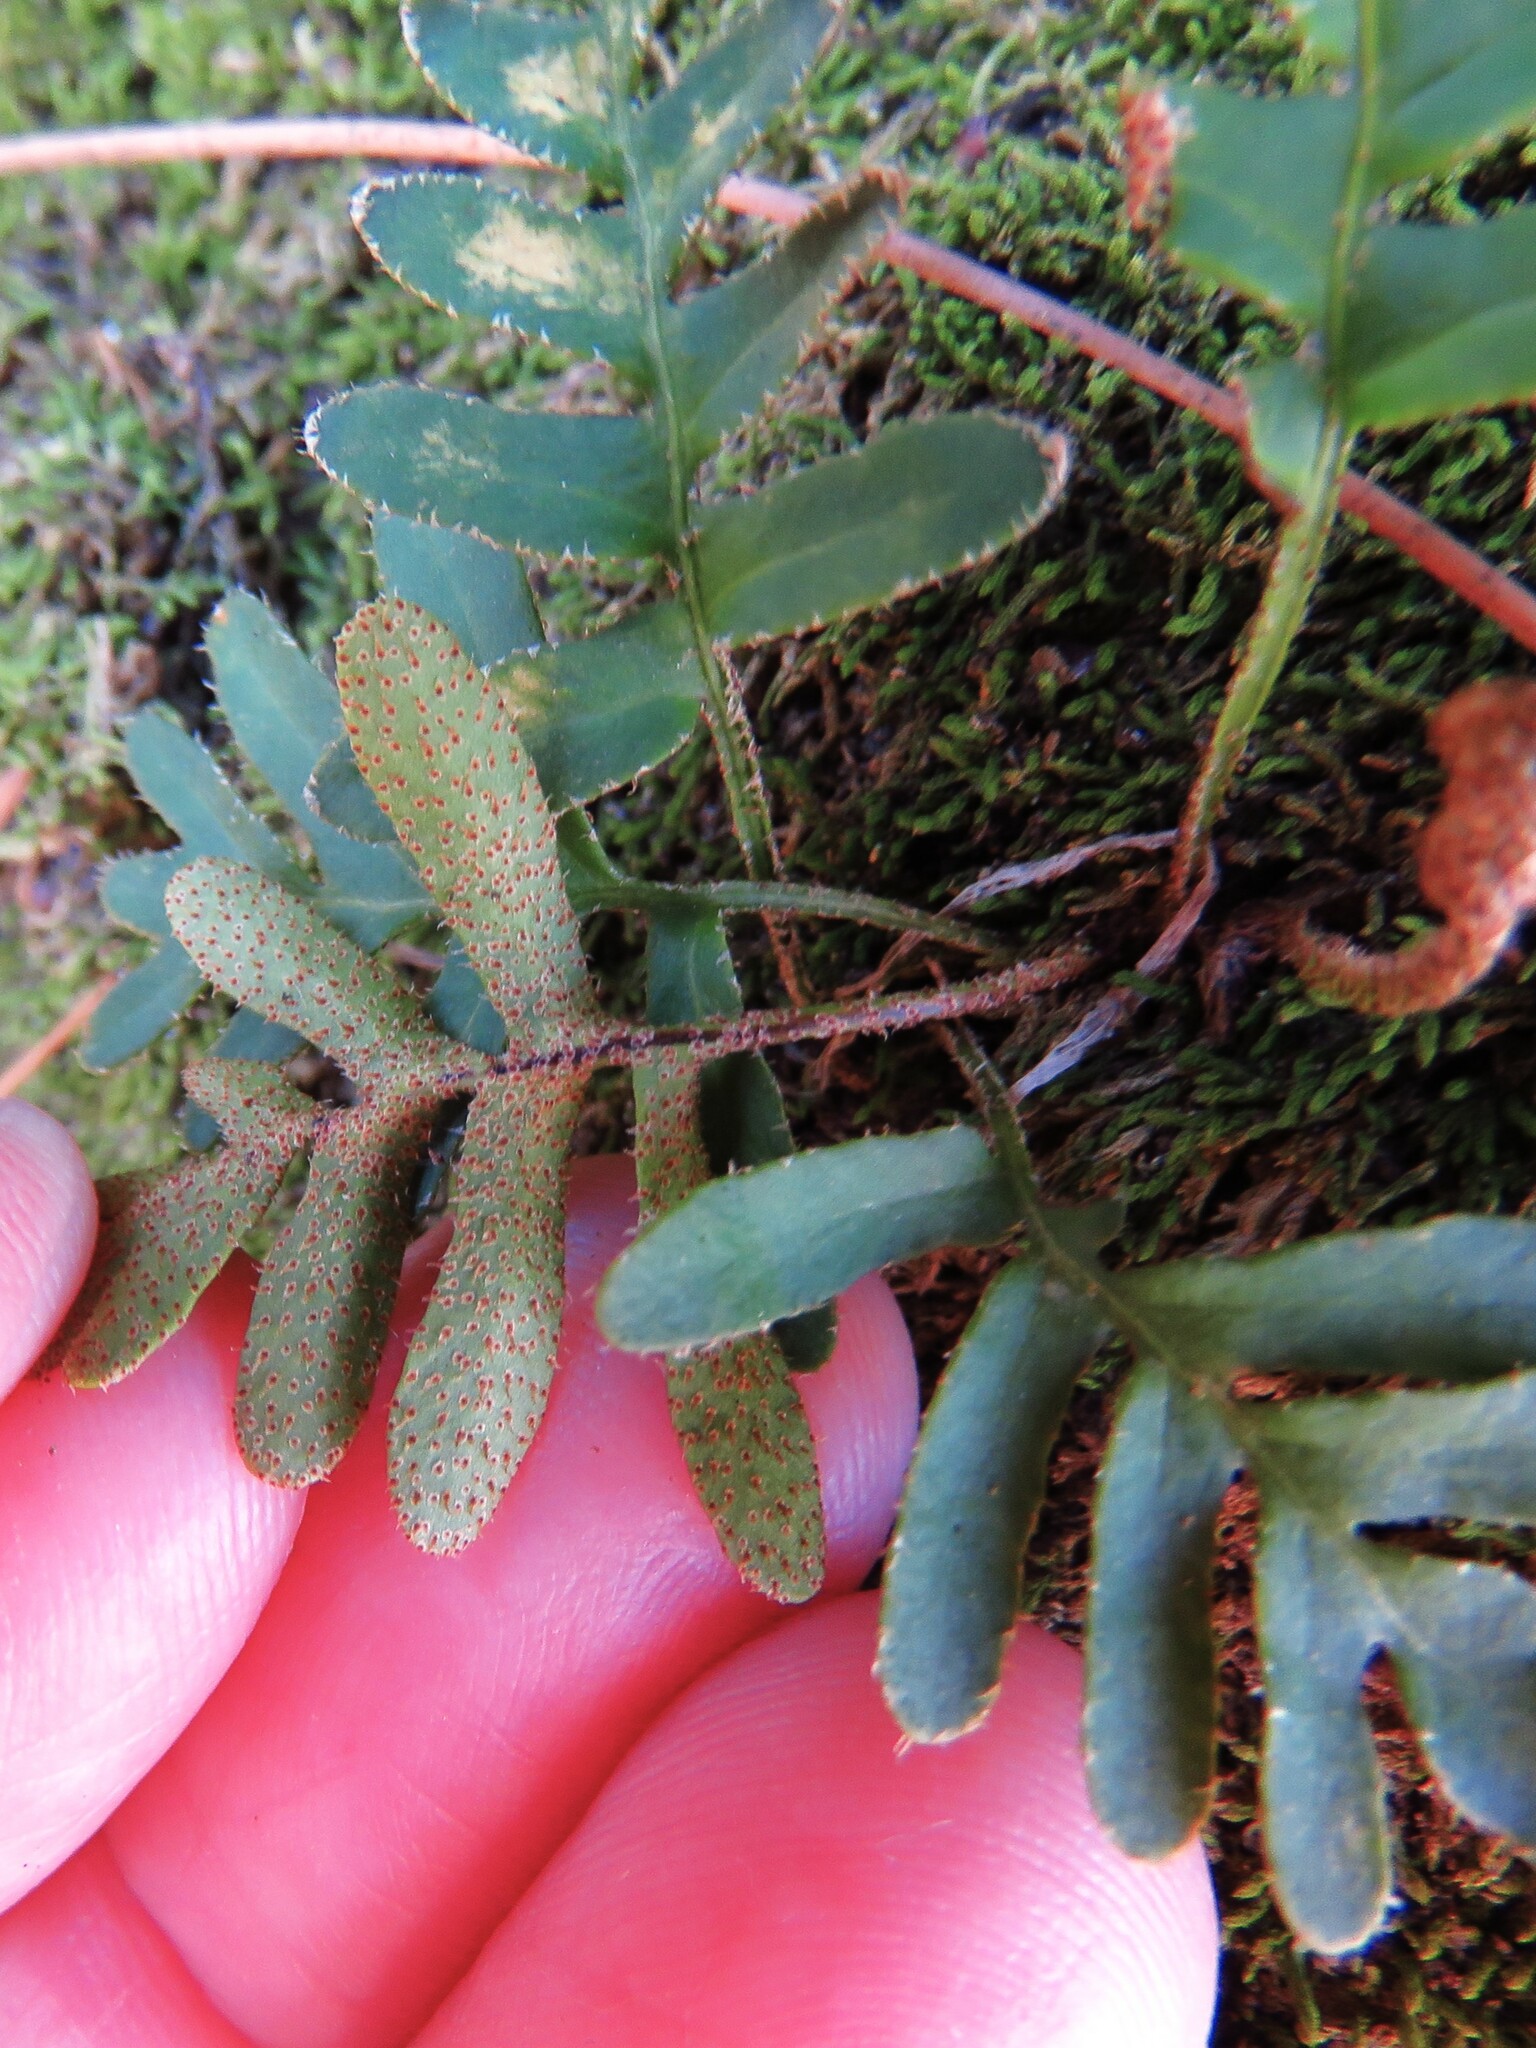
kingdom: Plantae
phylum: Tracheophyta
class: Polypodiopsida
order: Polypodiales
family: Polypodiaceae
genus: Pleopeltis
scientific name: Pleopeltis michauxiana
